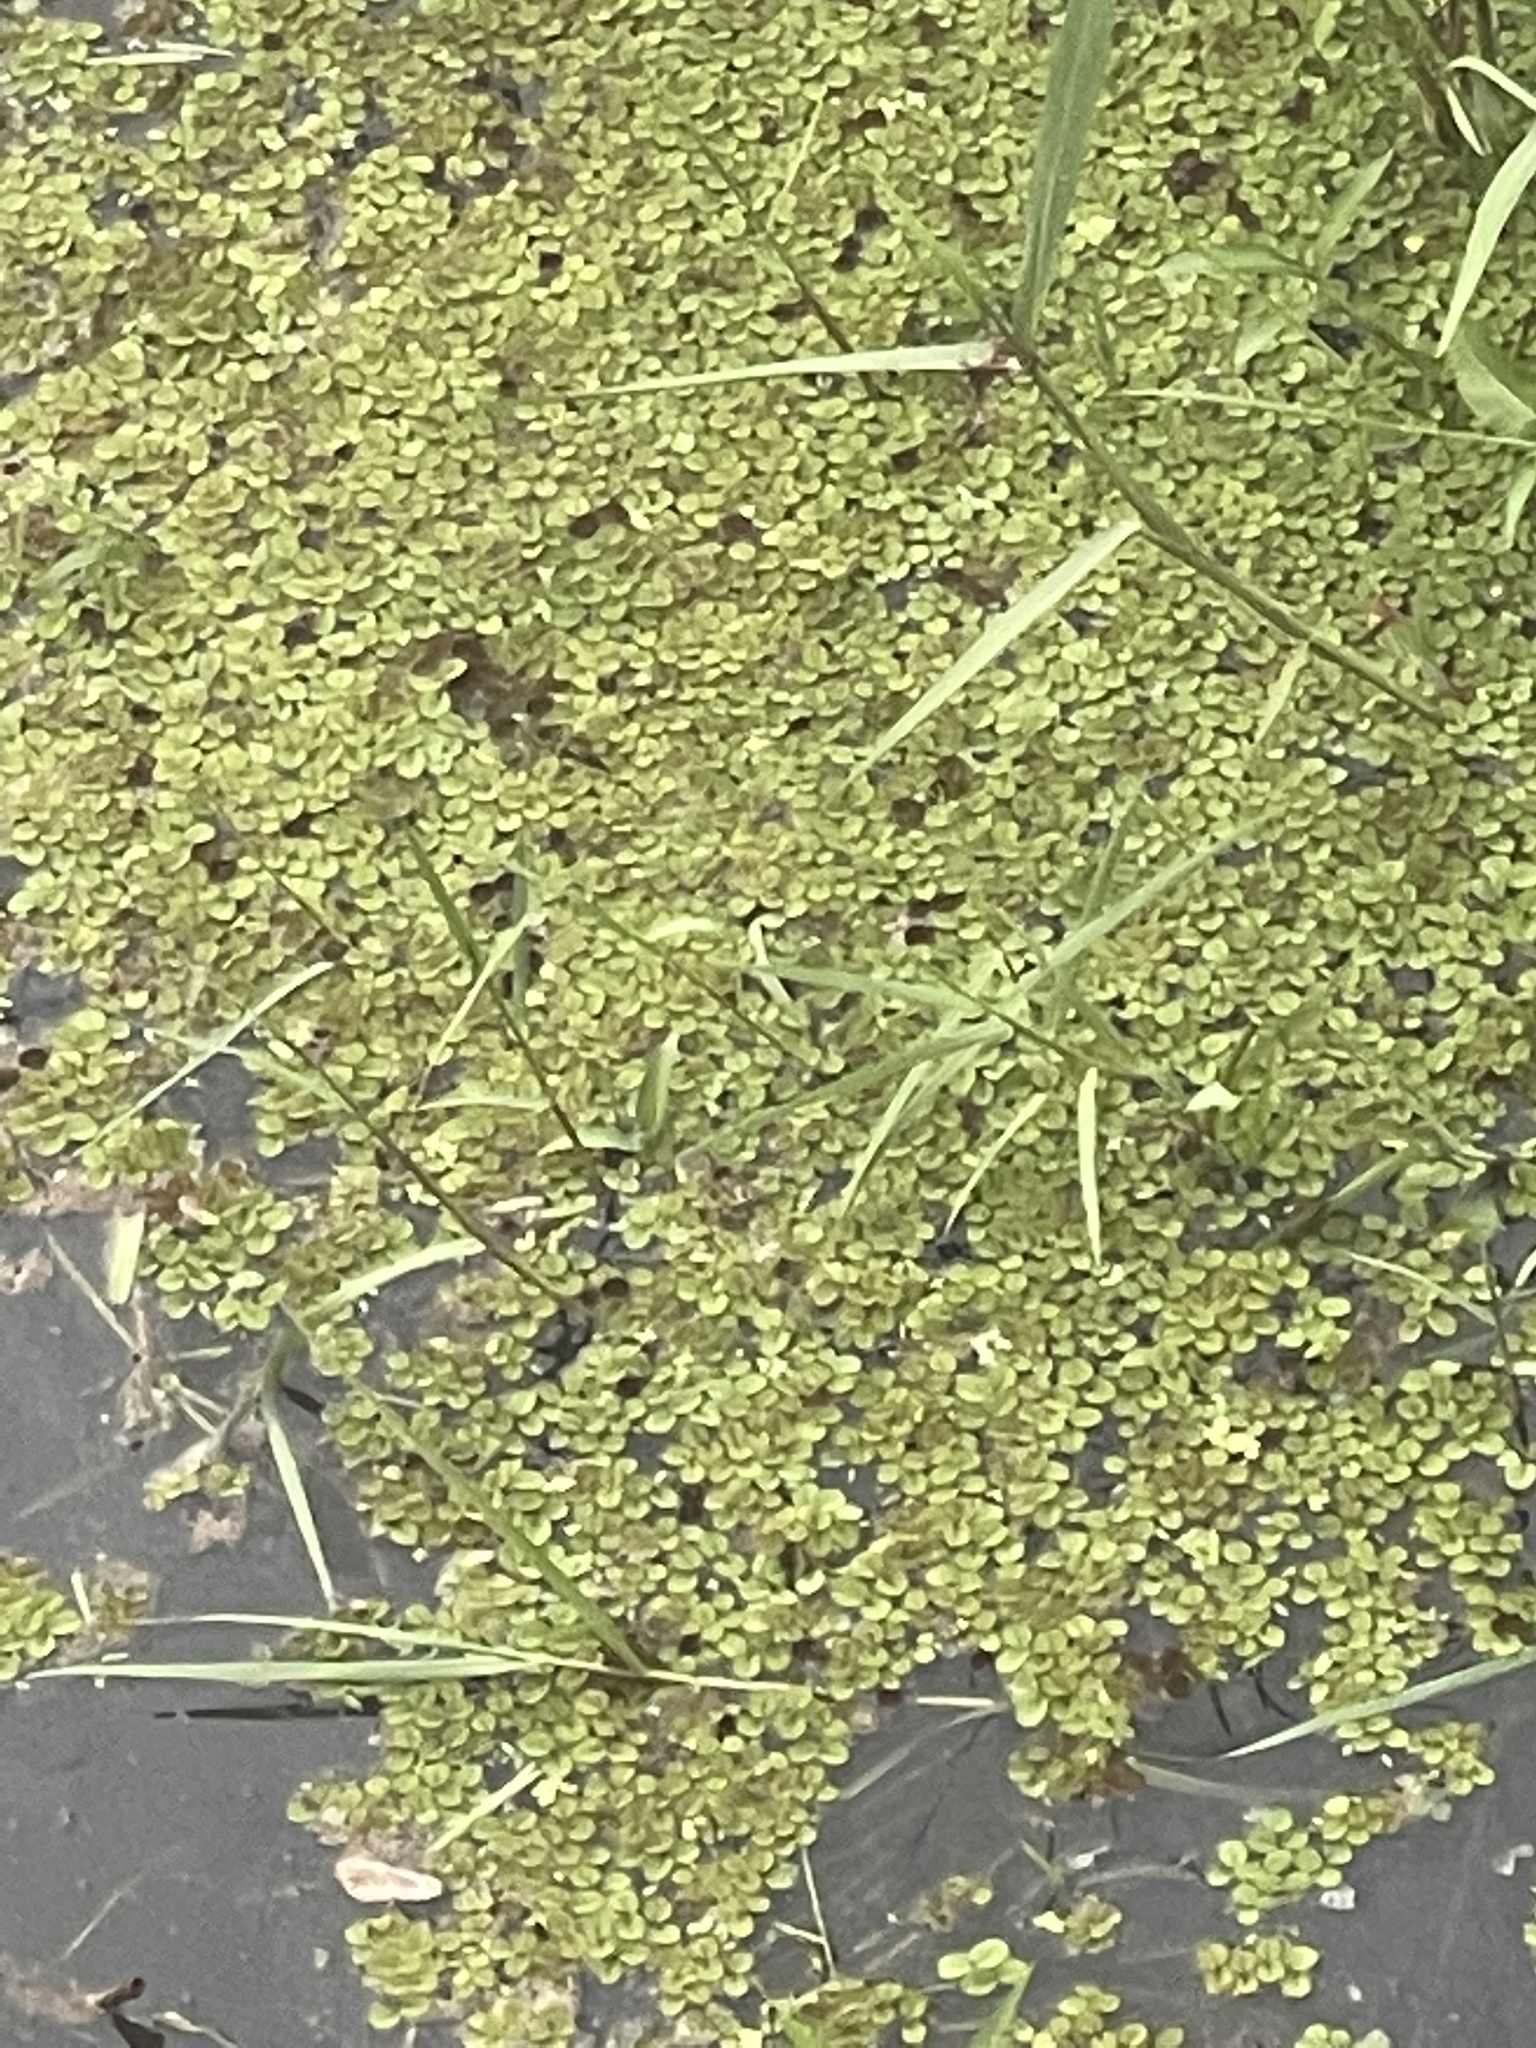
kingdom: Plantae
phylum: Tracheophyta
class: Polypodiopsida
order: Salviniales
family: Salviniaceae
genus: Salvinia
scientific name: Salvinia minima
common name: Water spangles
